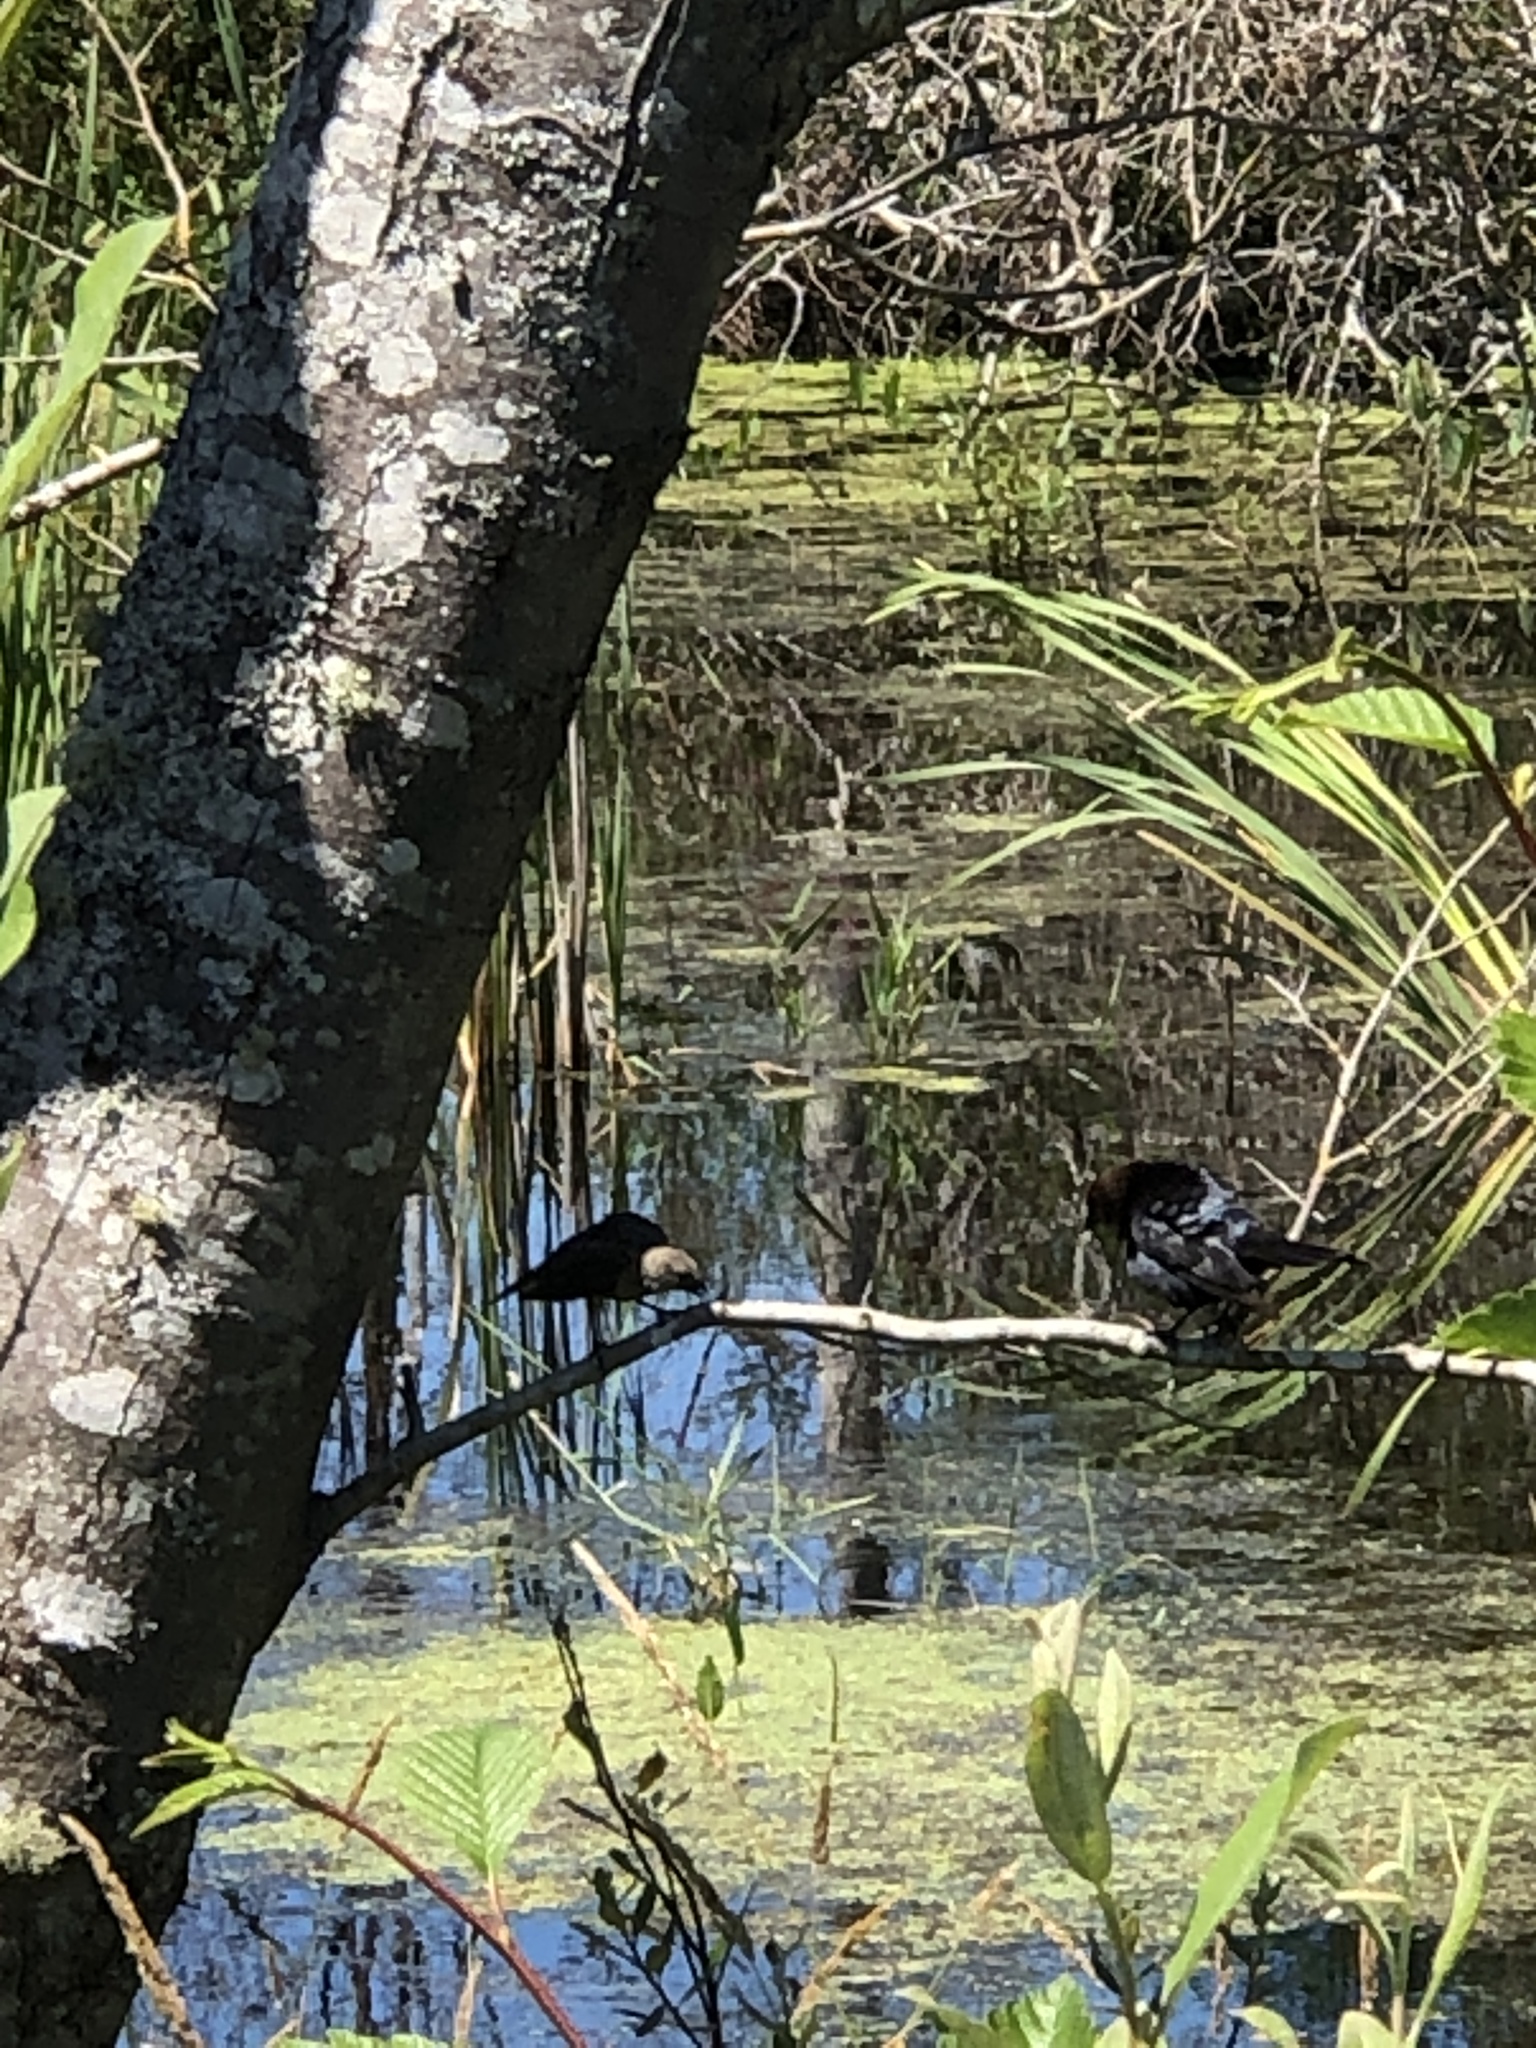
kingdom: Animalia
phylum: Chordata
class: Aves
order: Passeriformes
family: Icteridae
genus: Molothrus
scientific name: Molothrus ater
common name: Brown-headed cowbird
